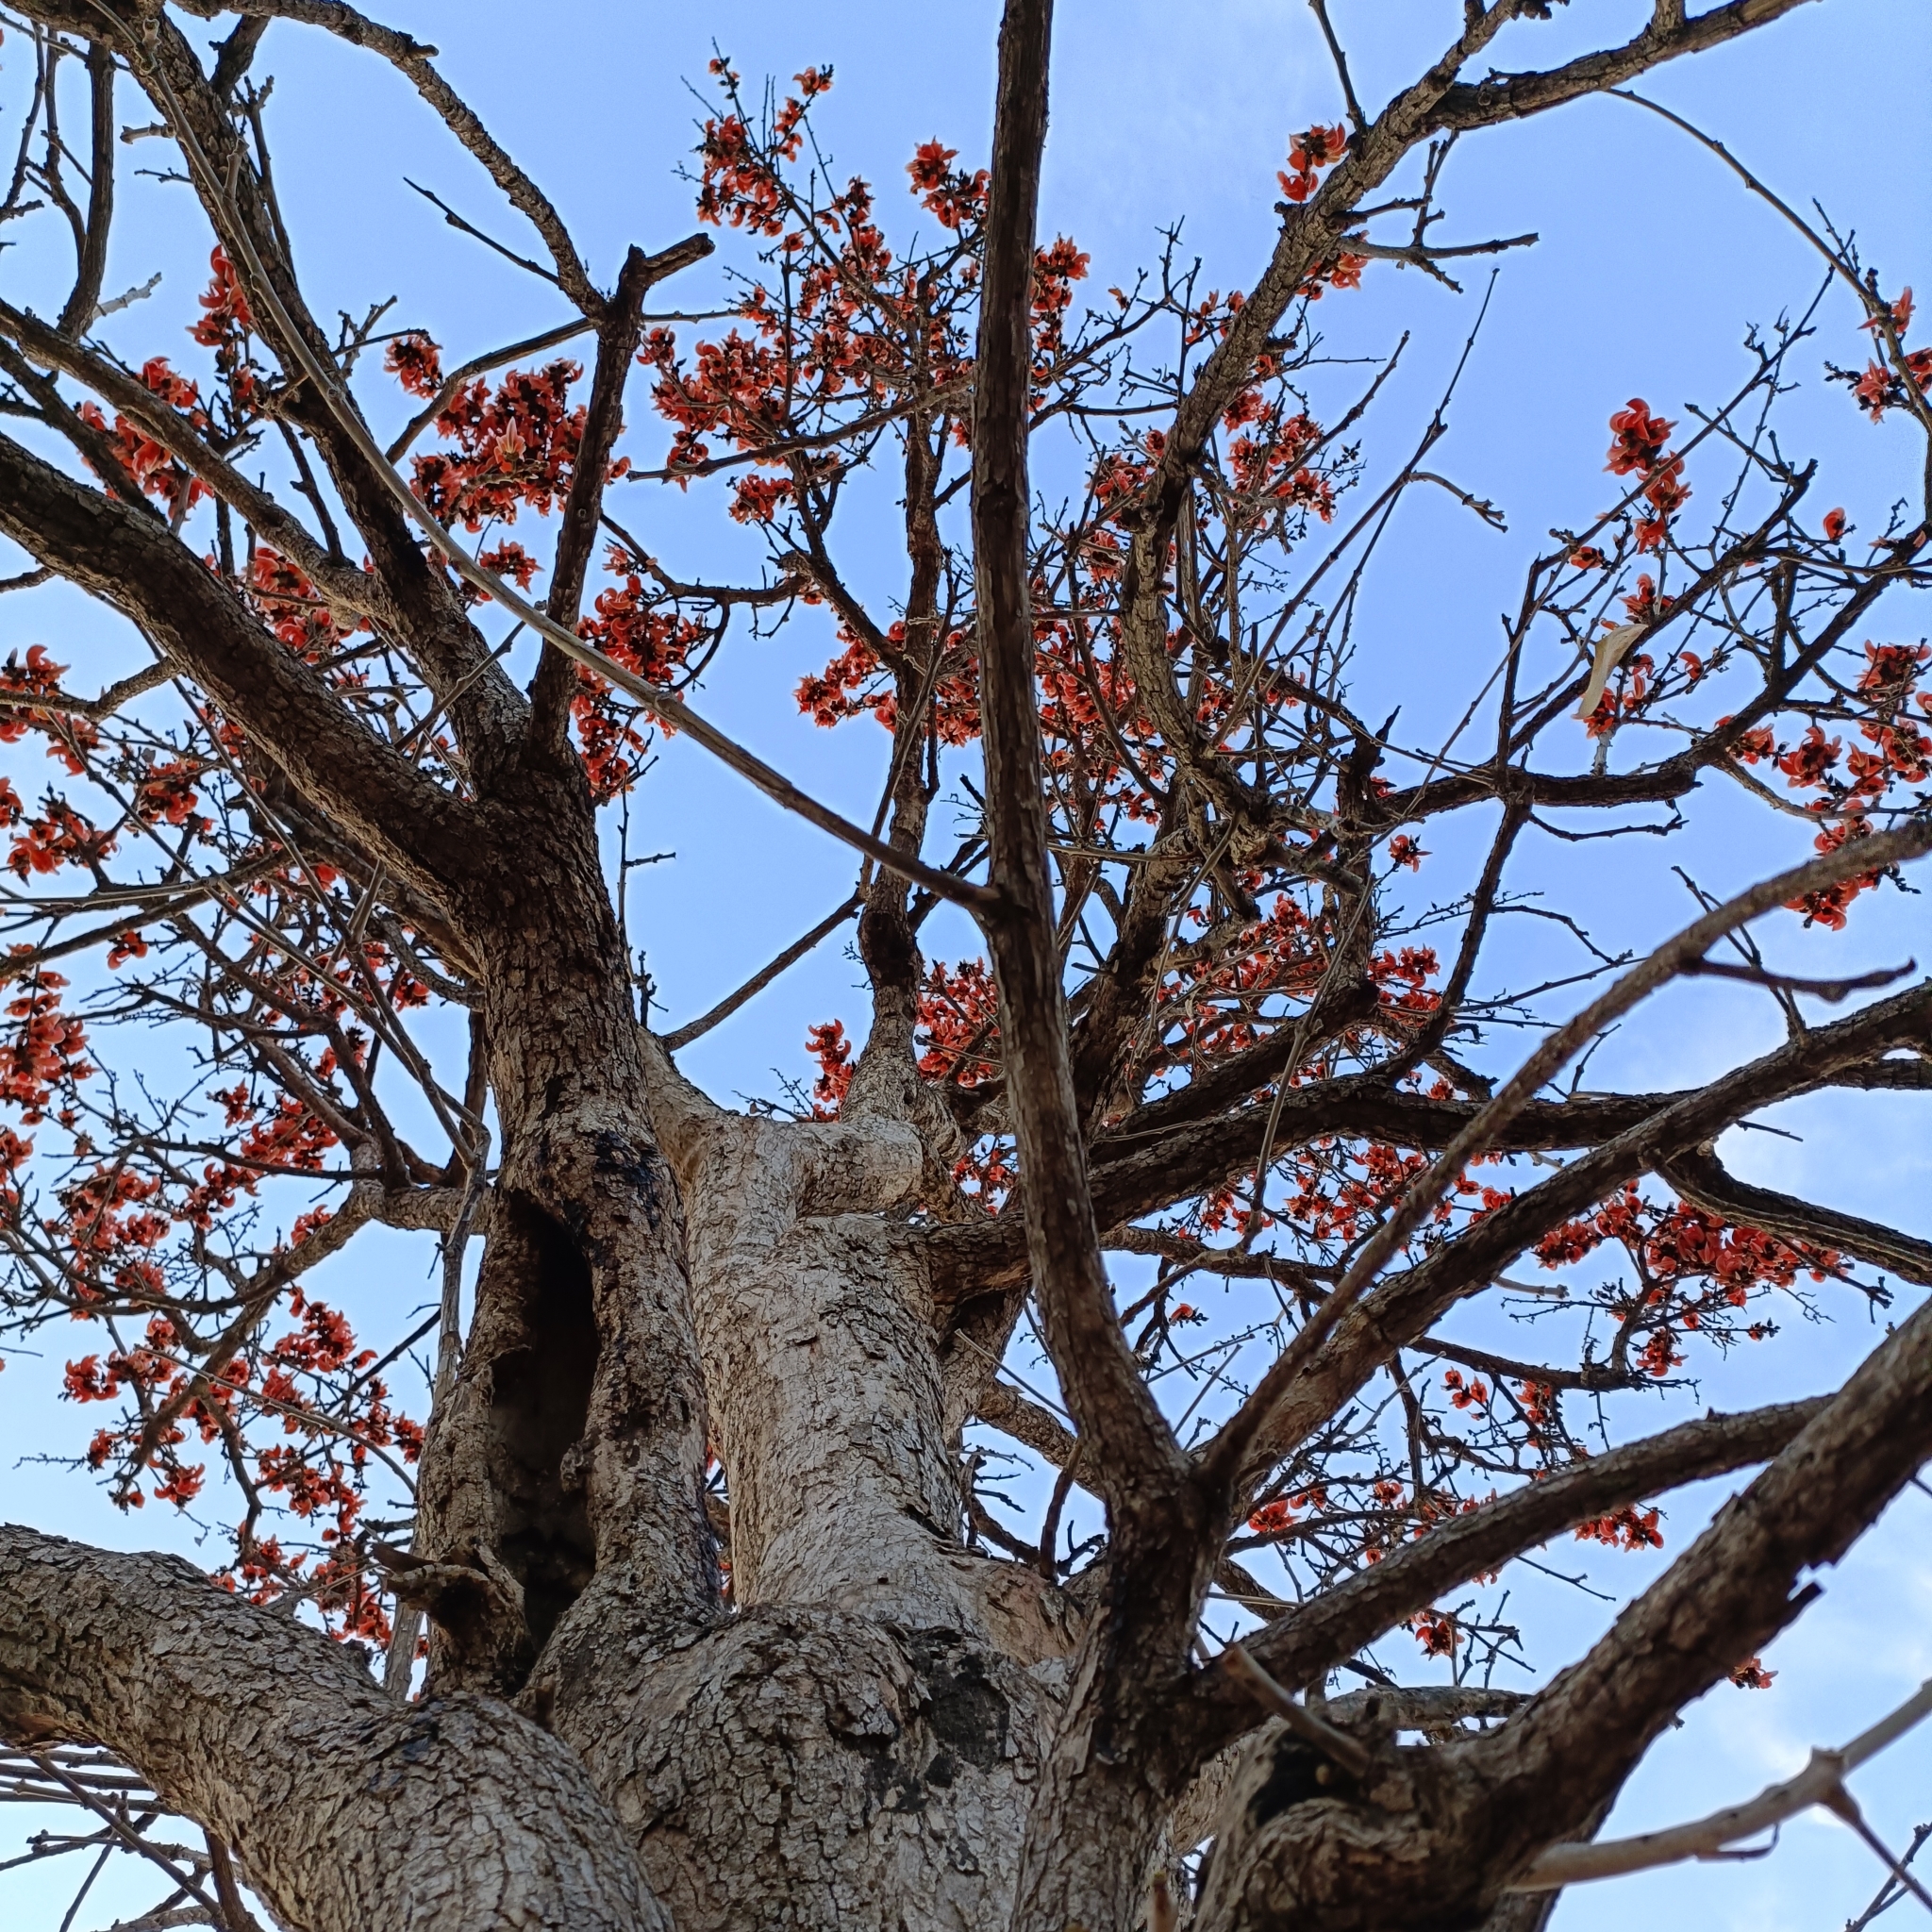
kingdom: Plantae
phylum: Tracheophyta
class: Magnoliopsida
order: Fabales
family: Fabaceae
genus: Butea
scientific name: Butea monosperma
